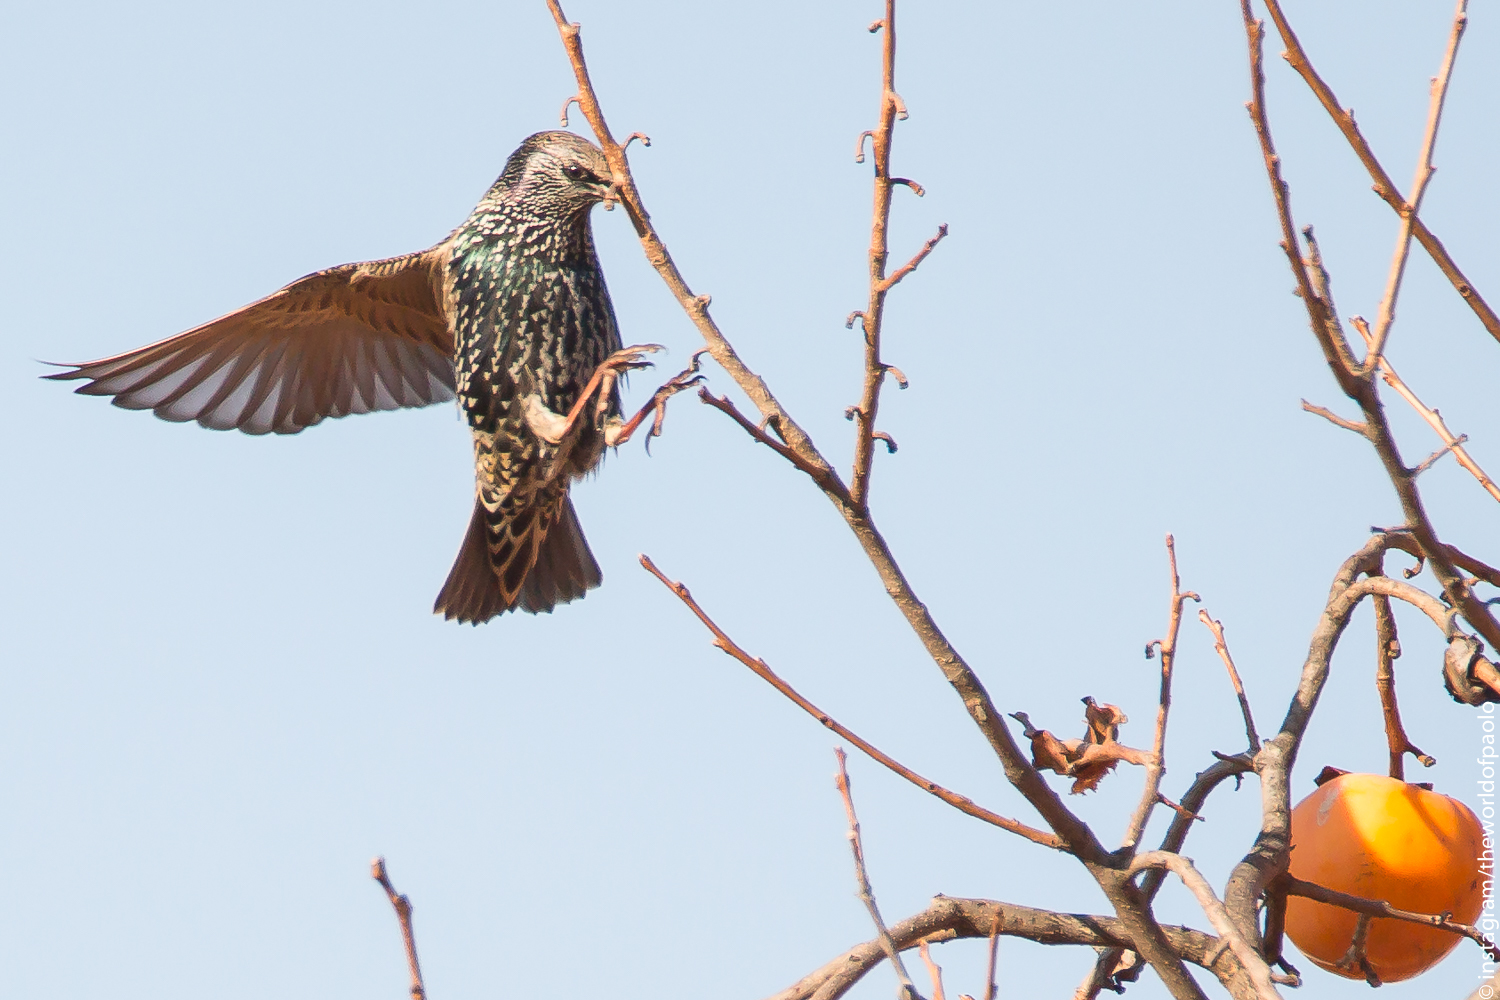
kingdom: Animalia
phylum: Chordata
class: Aves
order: Passeriformes
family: Sturnidae
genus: Sturnus
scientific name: Sturnus vulgaris
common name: Common starling
